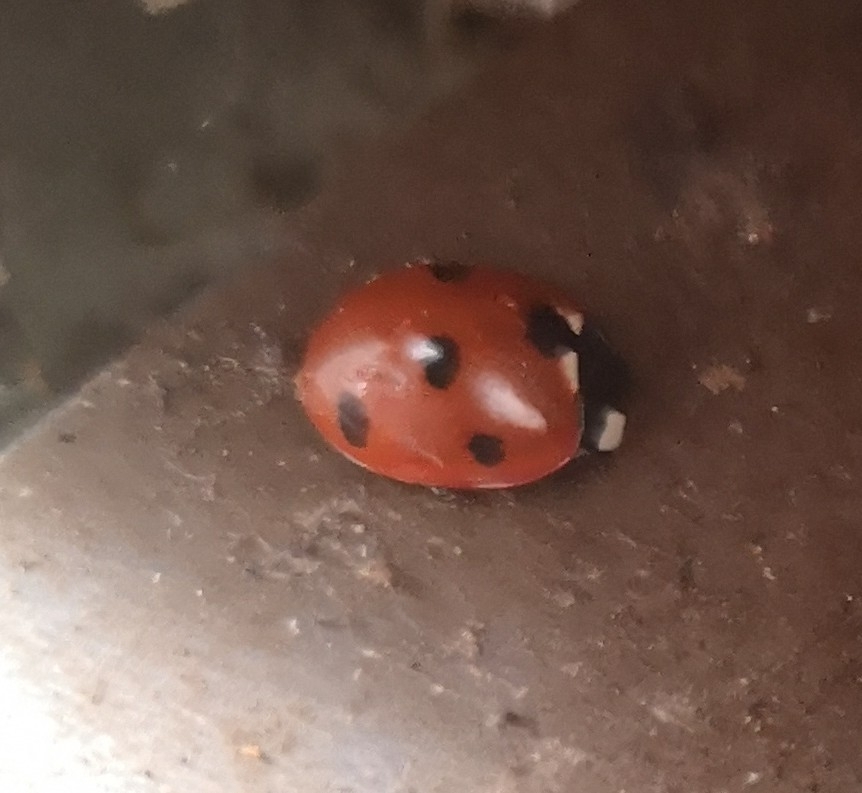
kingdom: Animalia
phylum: Arthropoda
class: Insecta
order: Coleoptera
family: Coccinellidae
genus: Coccinella
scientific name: Coccinella septempunctata
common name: Sevenspotted lady beetle
